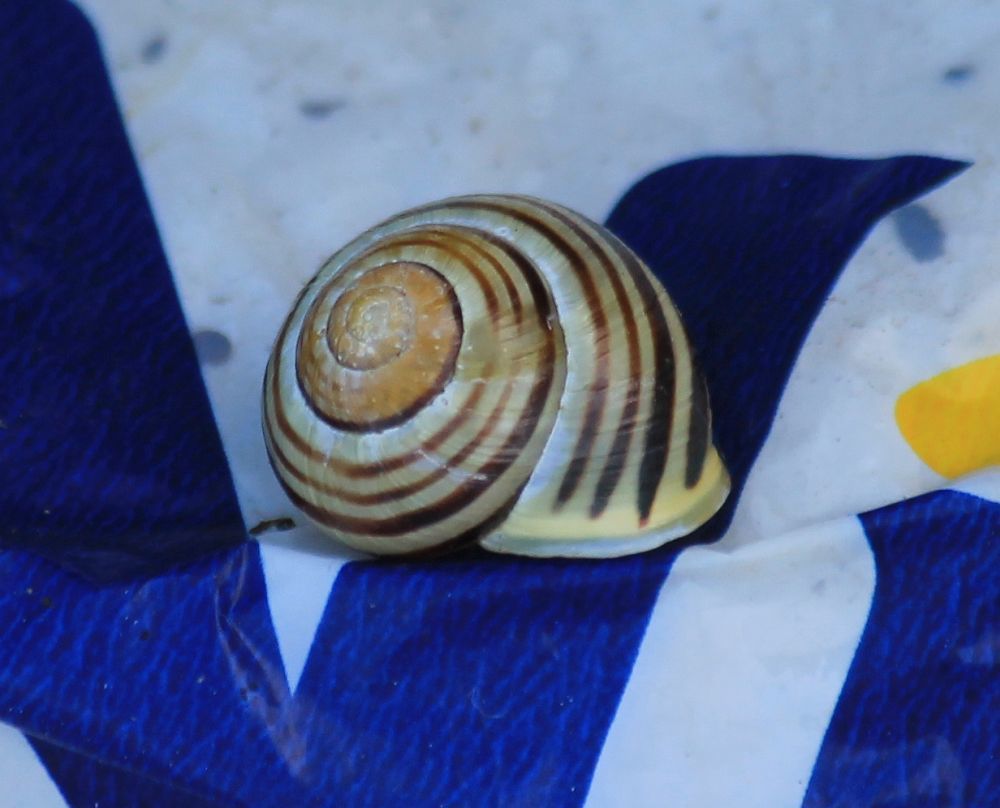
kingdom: Animalia
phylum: Mollusca
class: Gastropoda
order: Stylommatophora
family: Helicidae
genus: Cepaea
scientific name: Cepaea hortensis
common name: White-lip gardensnail
